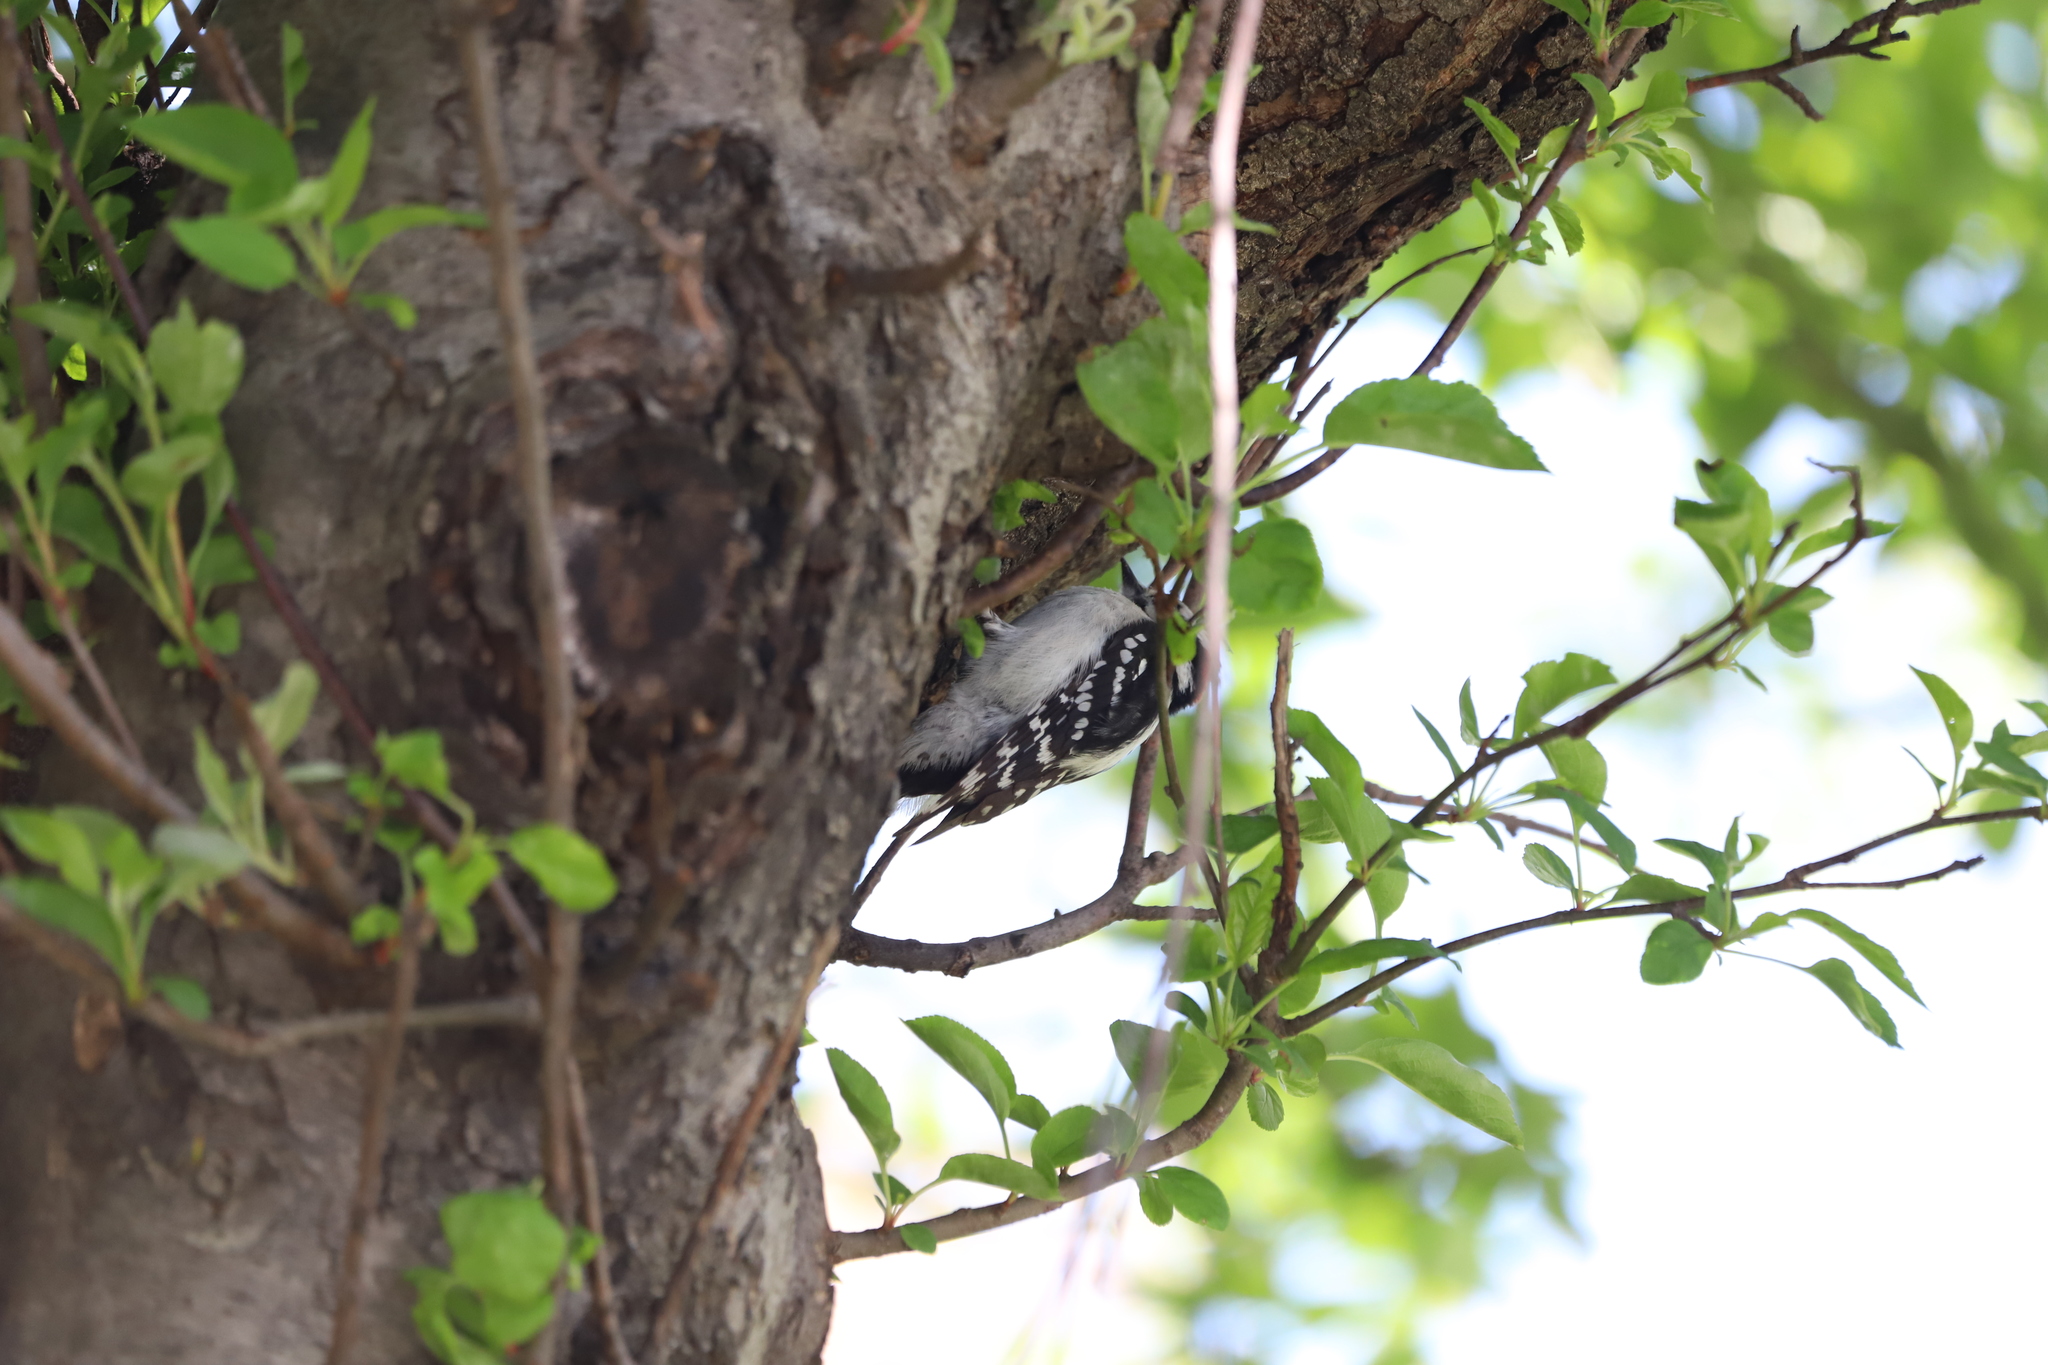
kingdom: Animalia
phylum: Chordata
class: Aves
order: Piciformes
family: Picidae
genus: Dryobates
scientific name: Dryobates pubescens
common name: Downy woodpecker
